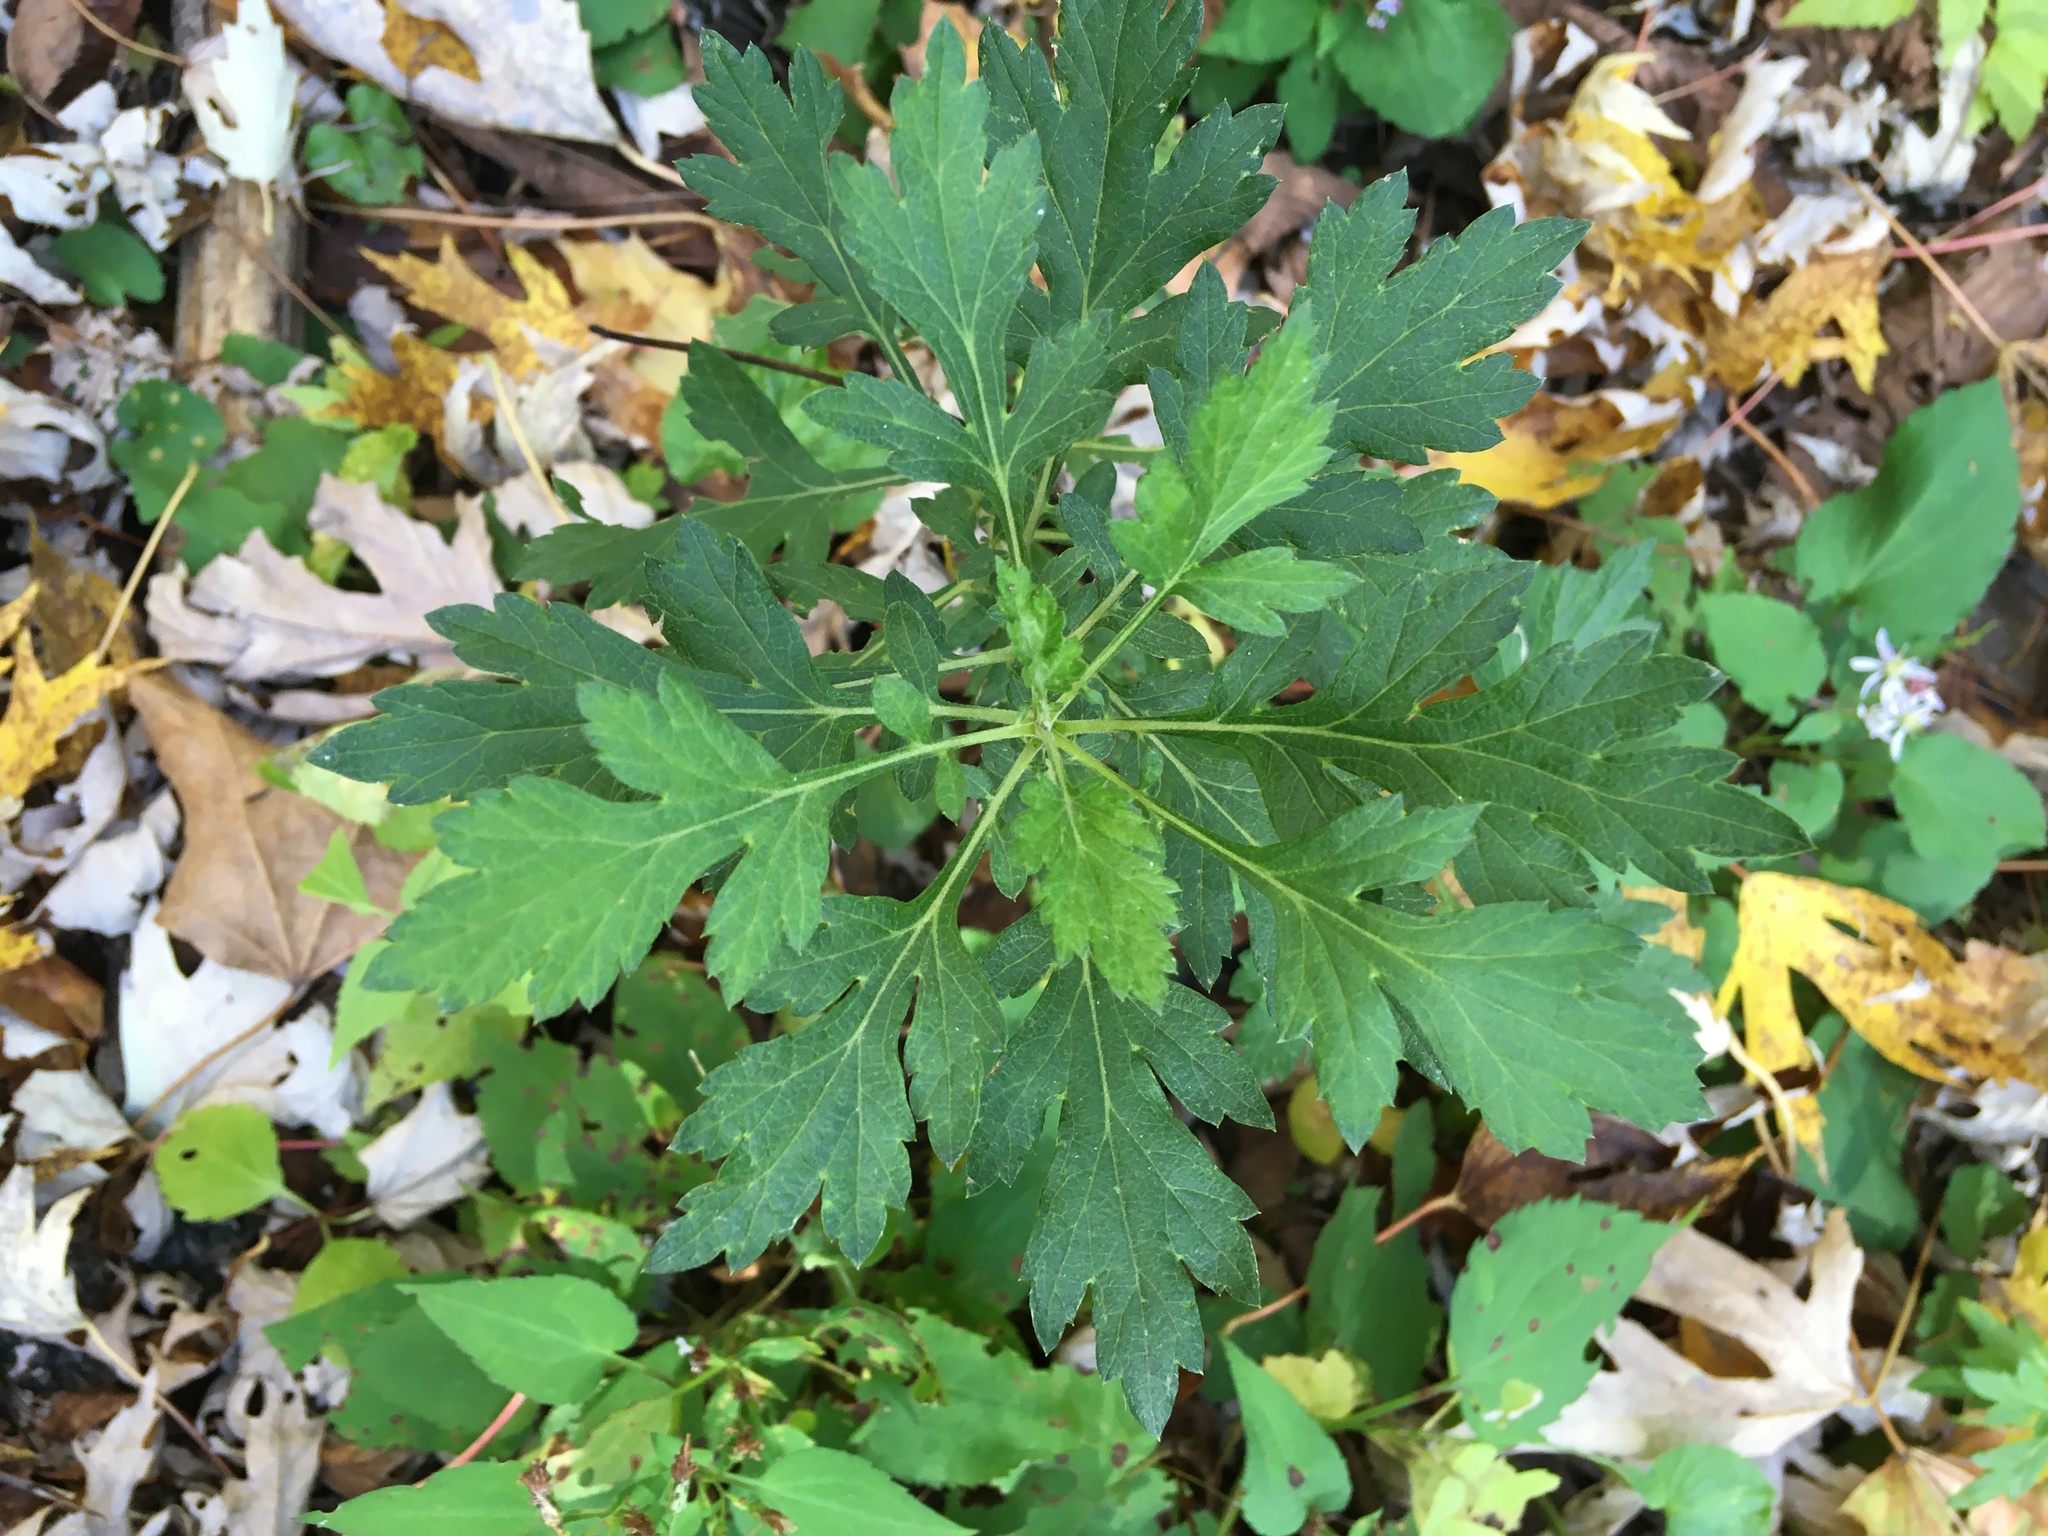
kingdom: Plantae
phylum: Tracheophyta
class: Magnoliopsida
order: Asterales
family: Asteraceae
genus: Artemisia
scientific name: Artemisia vulgaris
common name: Mugwort
